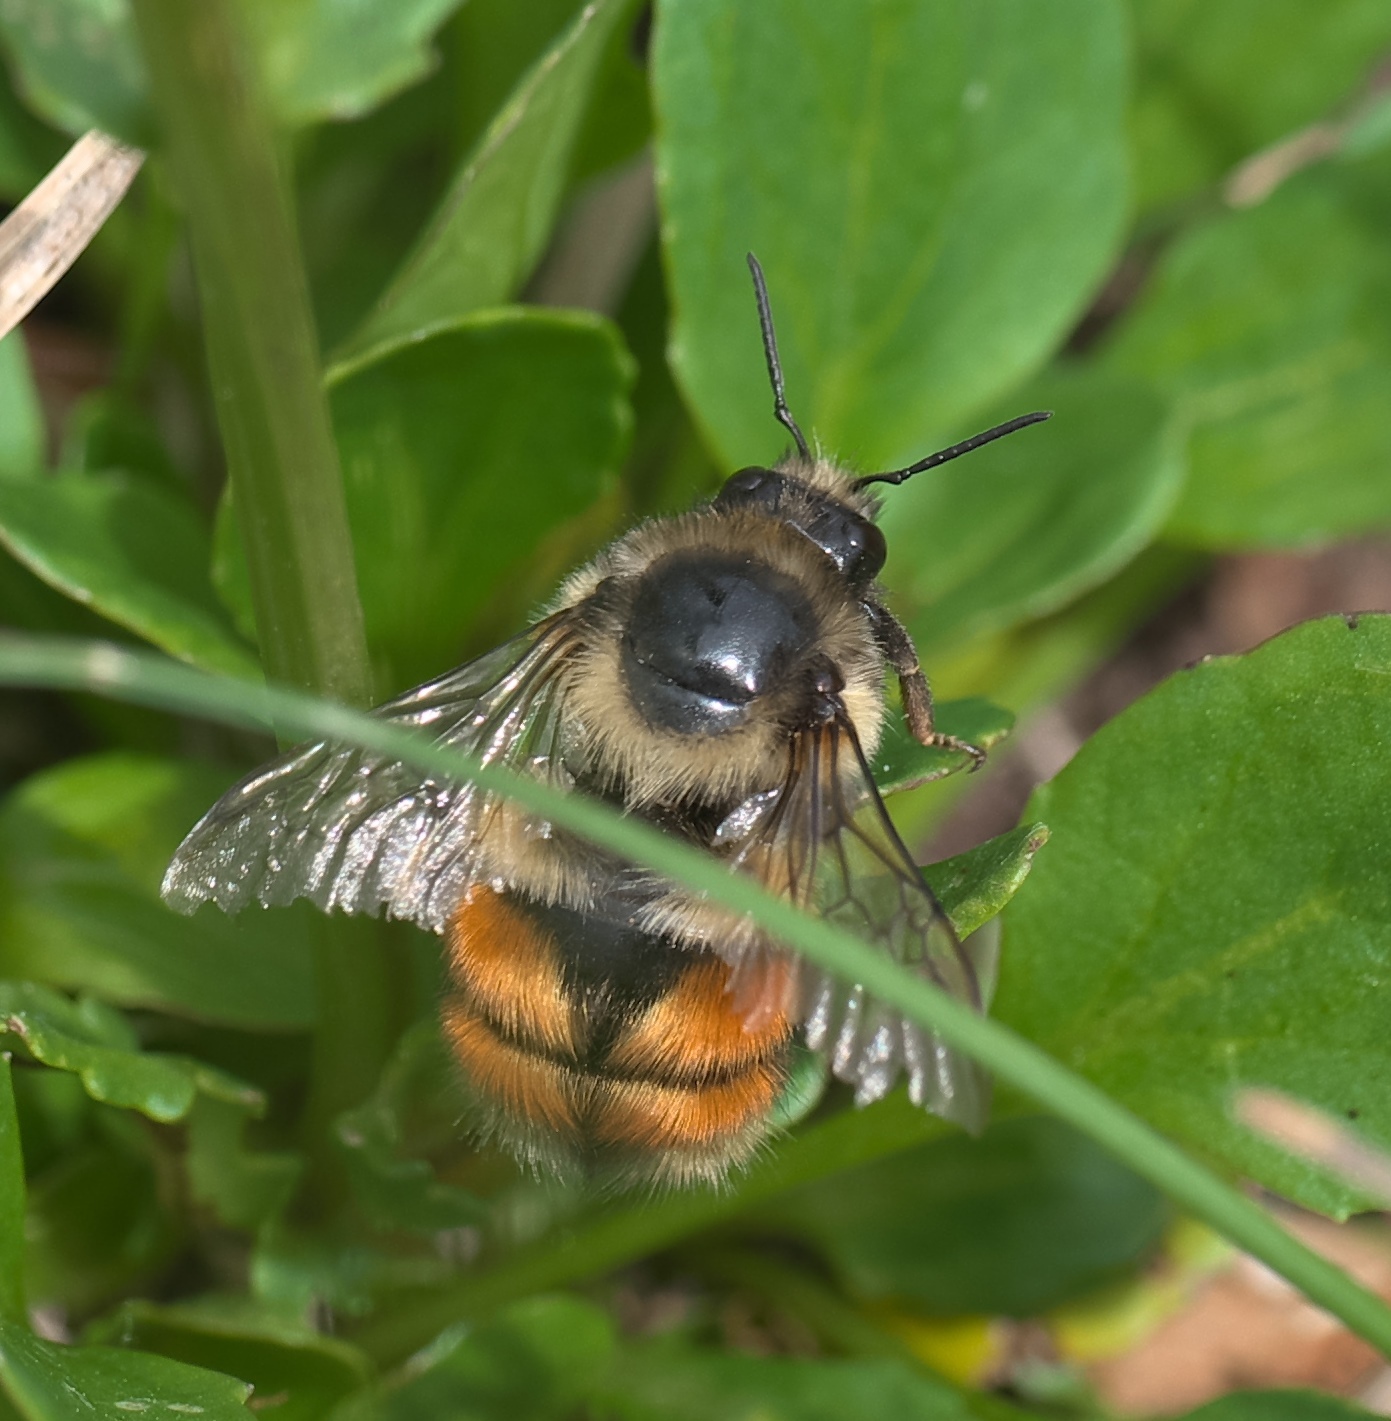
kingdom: Animalia
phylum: Arthropoda
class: Insecta
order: Hymenoptera
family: Apidae
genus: Bombus
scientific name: Bombus melanopygus
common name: Black tail bumble bee
